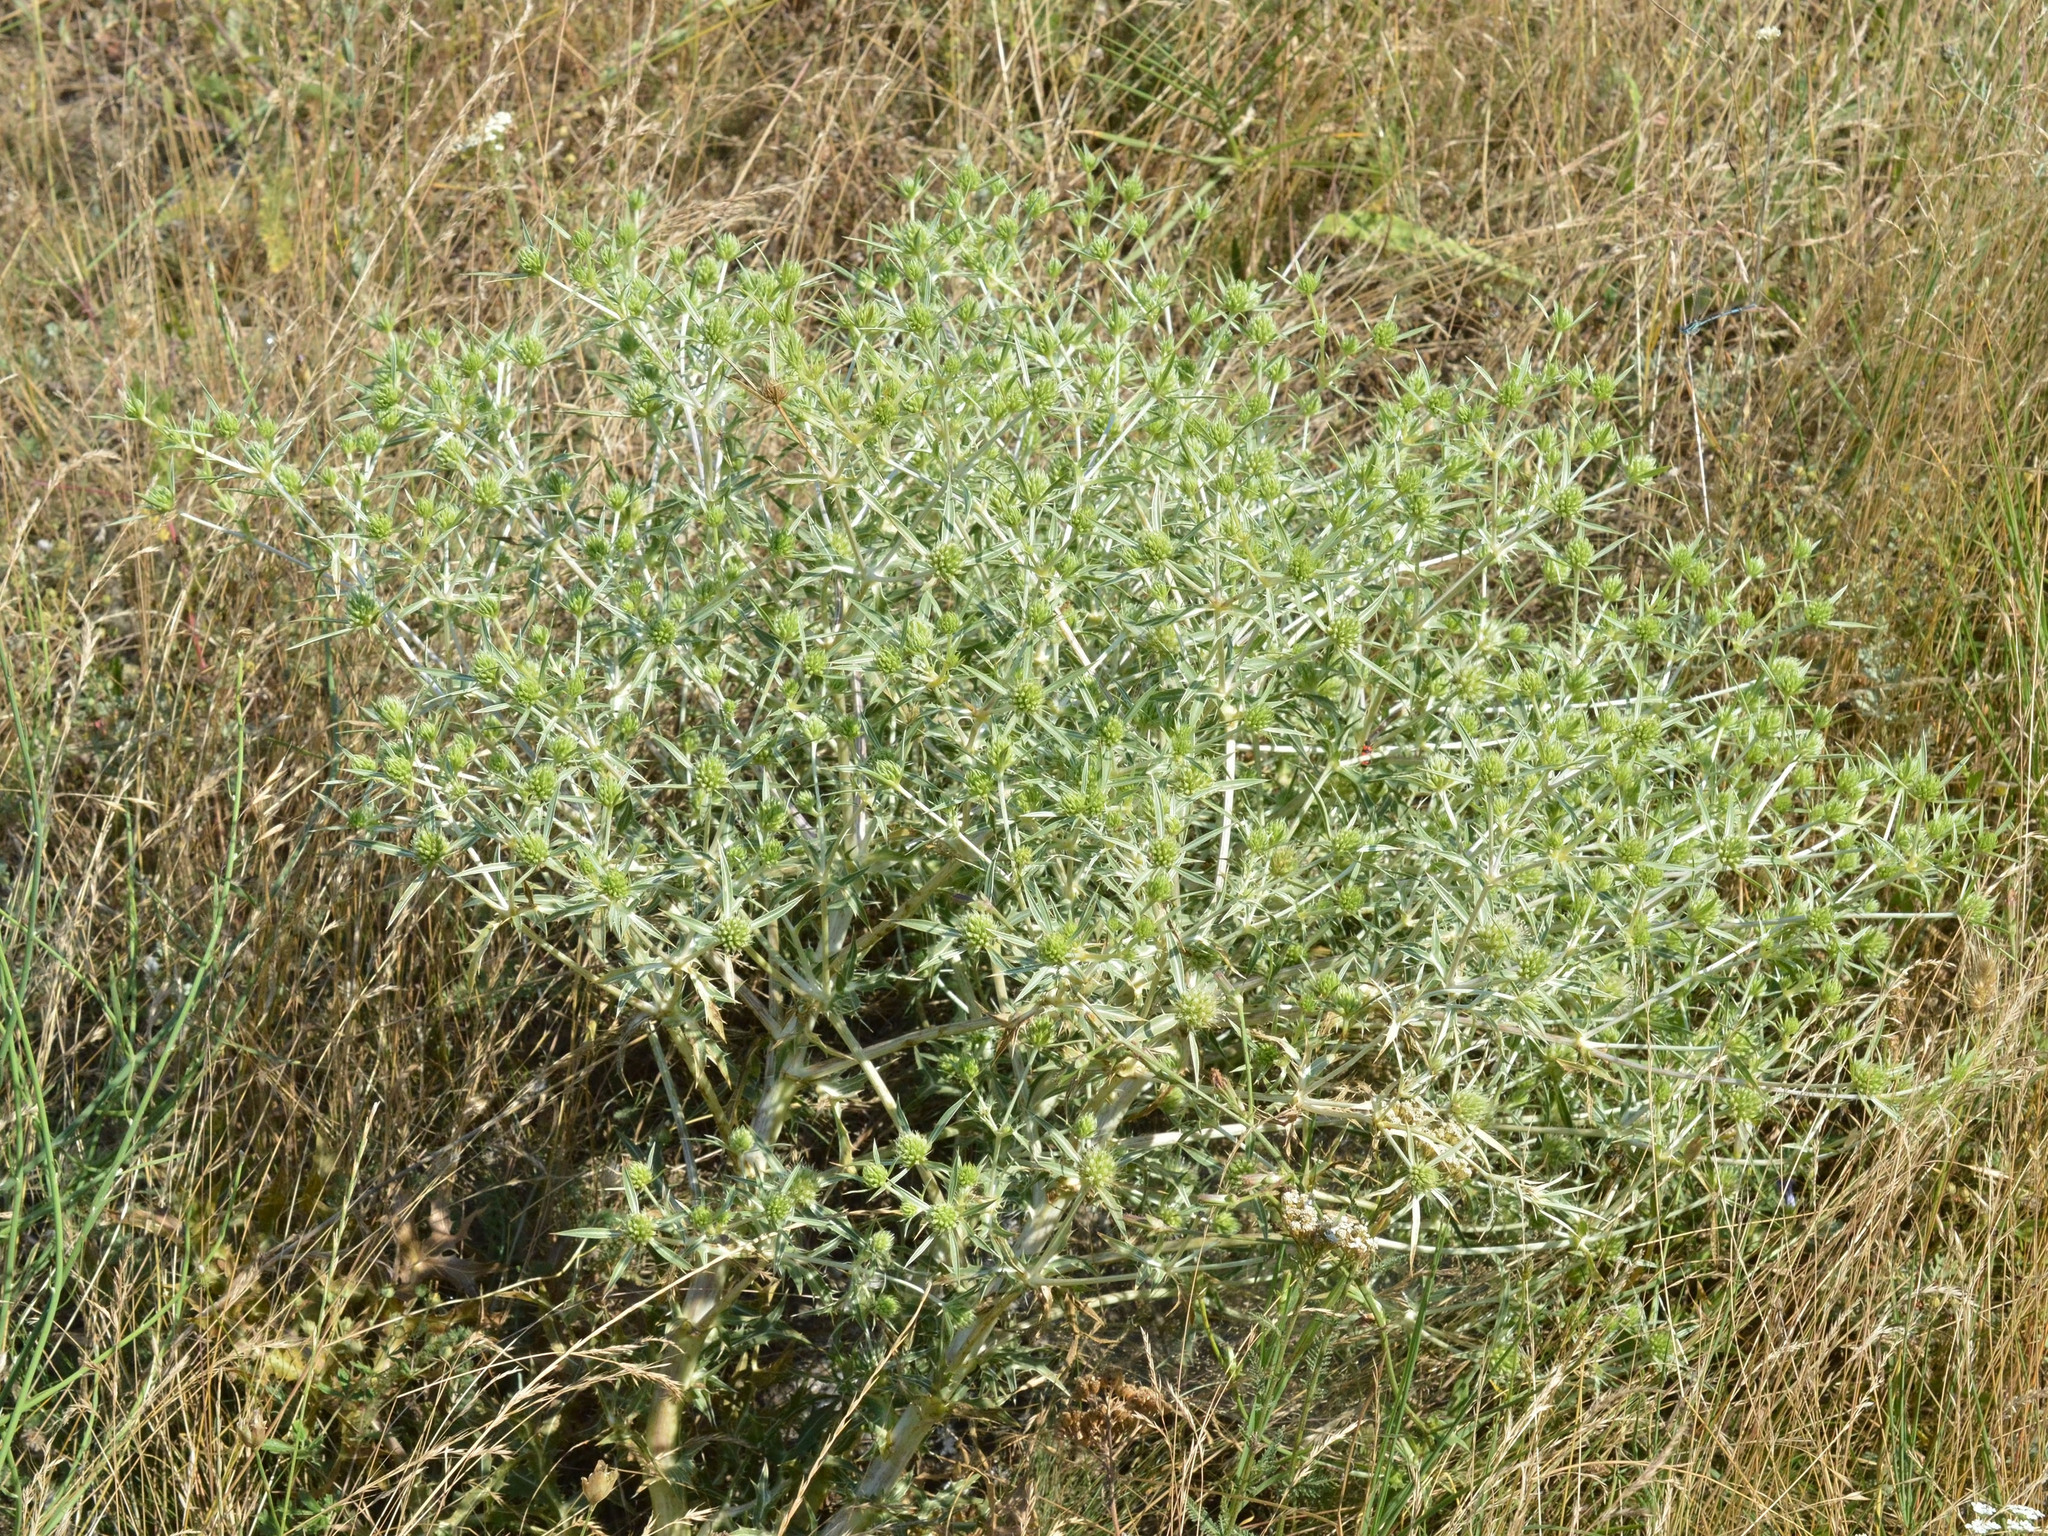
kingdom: Plantae
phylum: Tracheophyta
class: Magnoliopsida
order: Apiales
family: Apiaceae
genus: Eryngium
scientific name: Eryngium campestre
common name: Field eryngo
